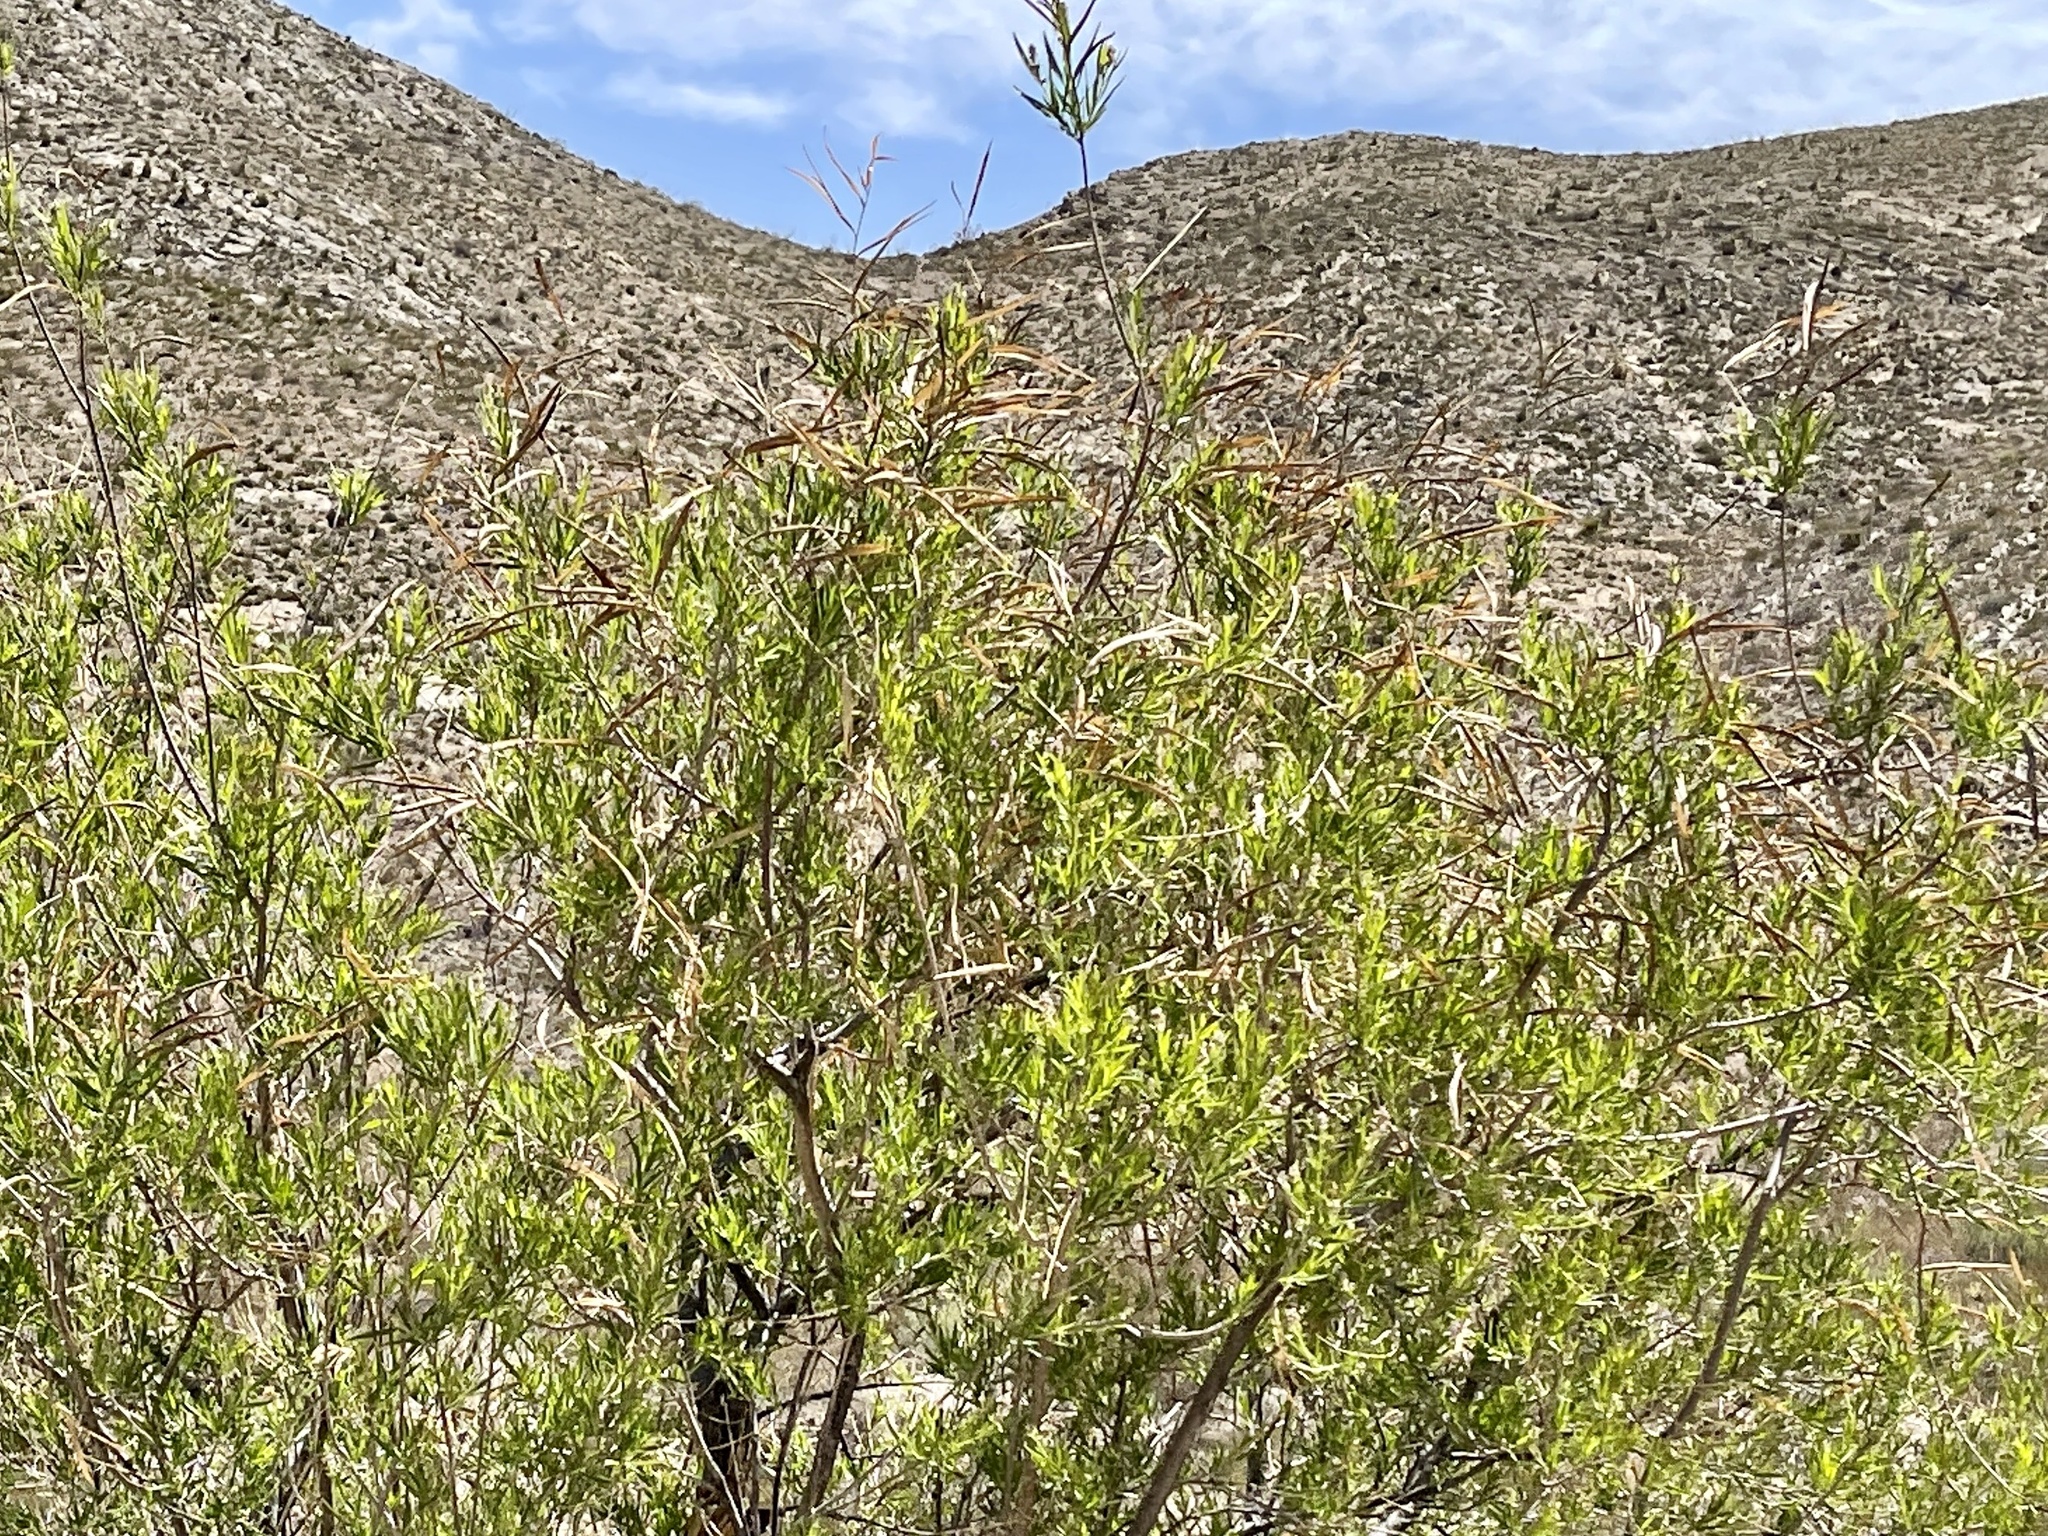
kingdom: Plantae
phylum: Tracheophyta
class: Magnoliopsida
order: Lamiales
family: Bignoniaceae
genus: Chilopsis
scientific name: Chilopsis linearis
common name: Desert-willow
